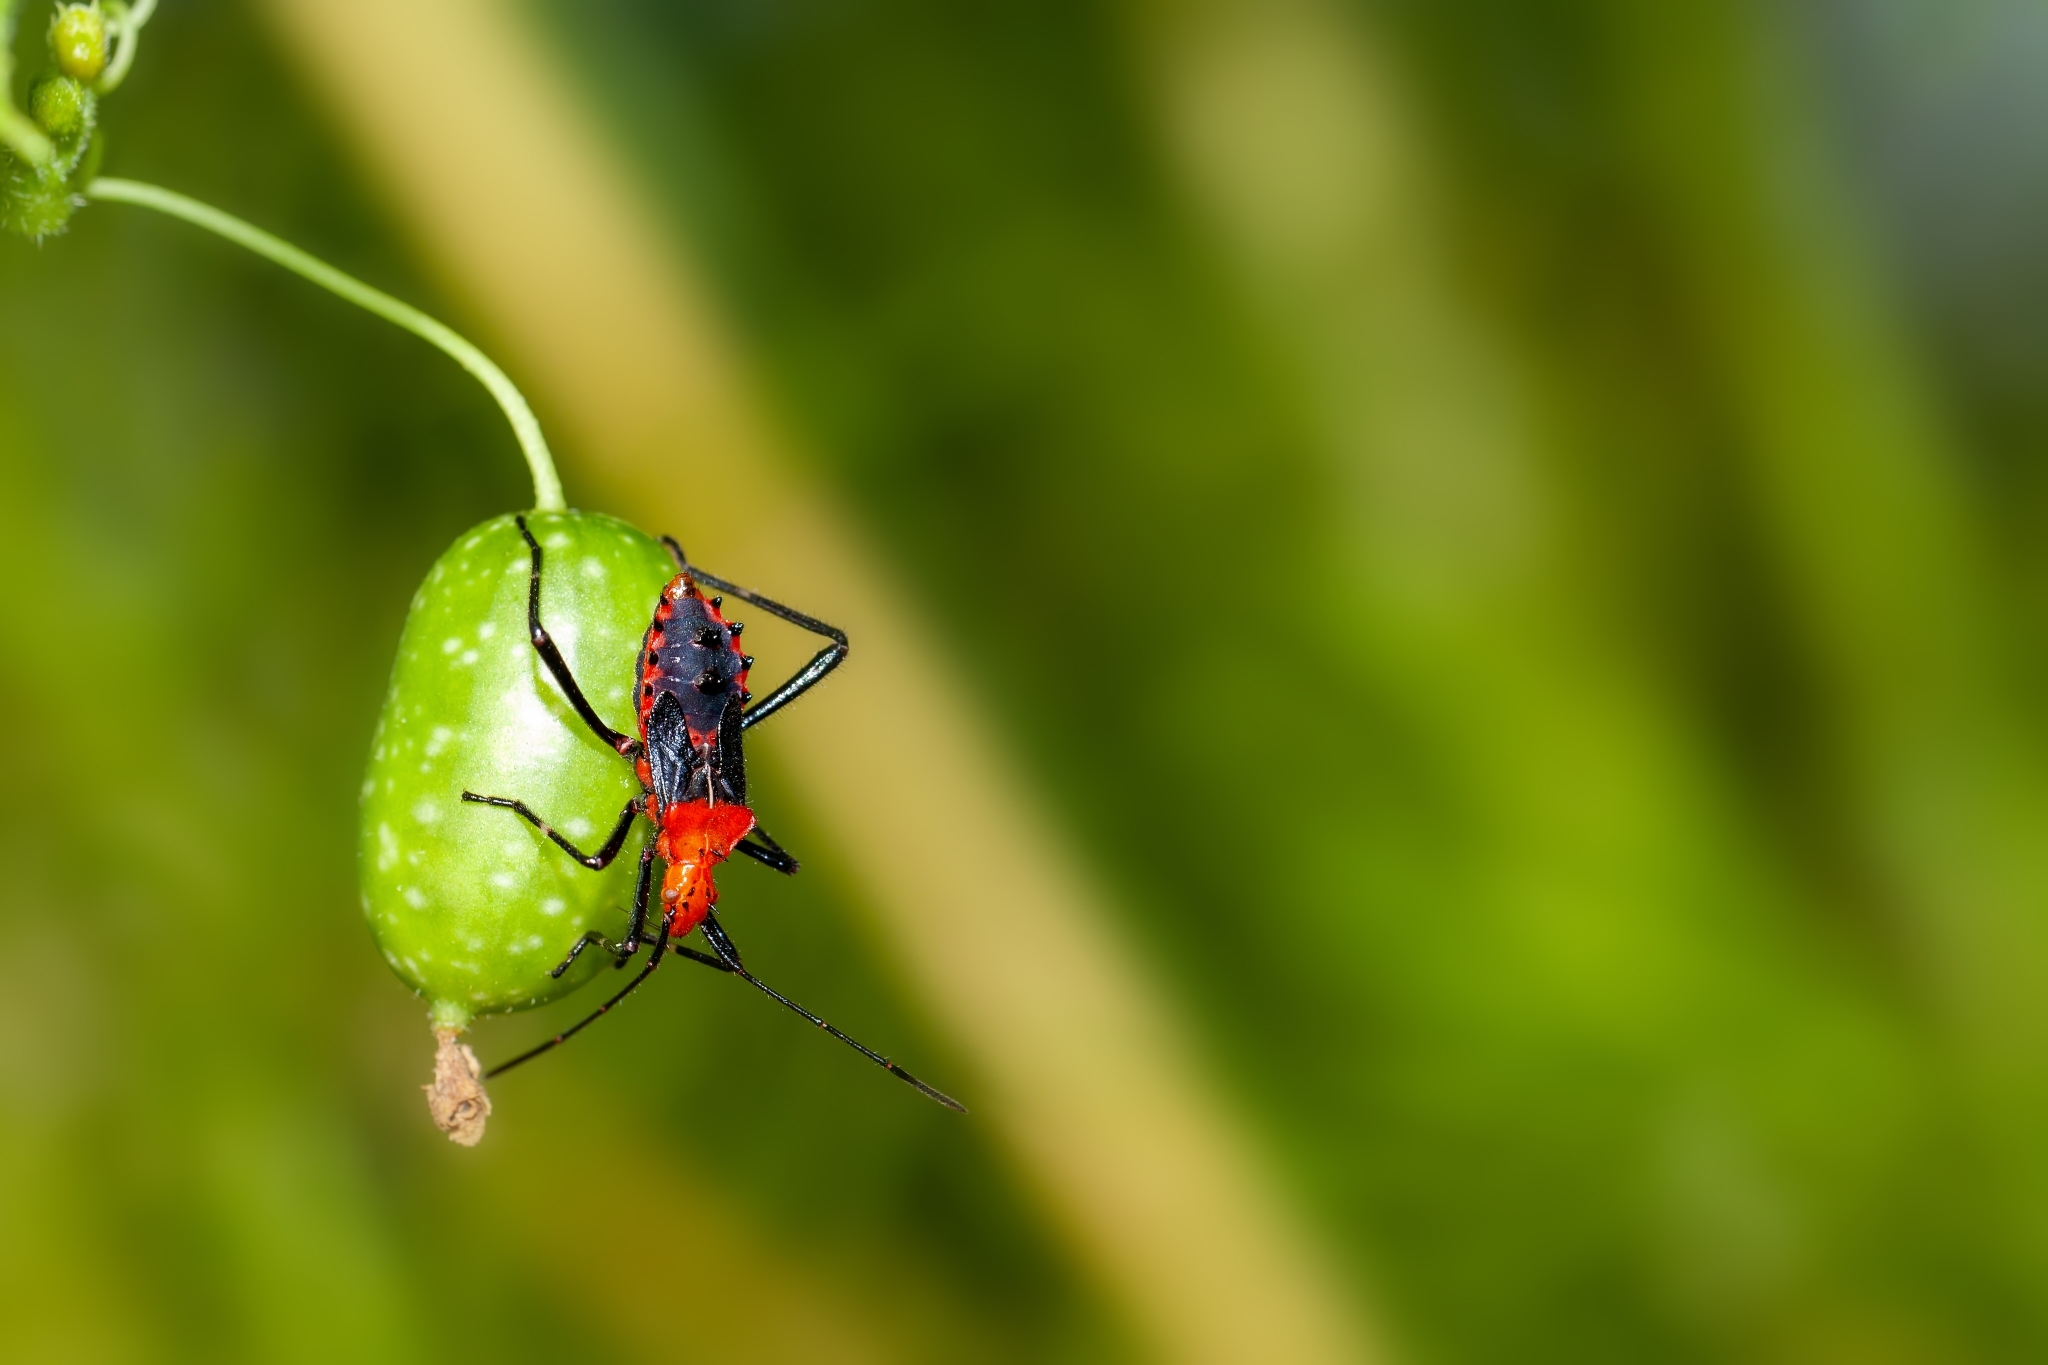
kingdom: Animalia
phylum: Arthropoda
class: Insecta
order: Hemiptera
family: Coreidae
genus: Phthiacnemia
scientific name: Phthiacnemia picta
